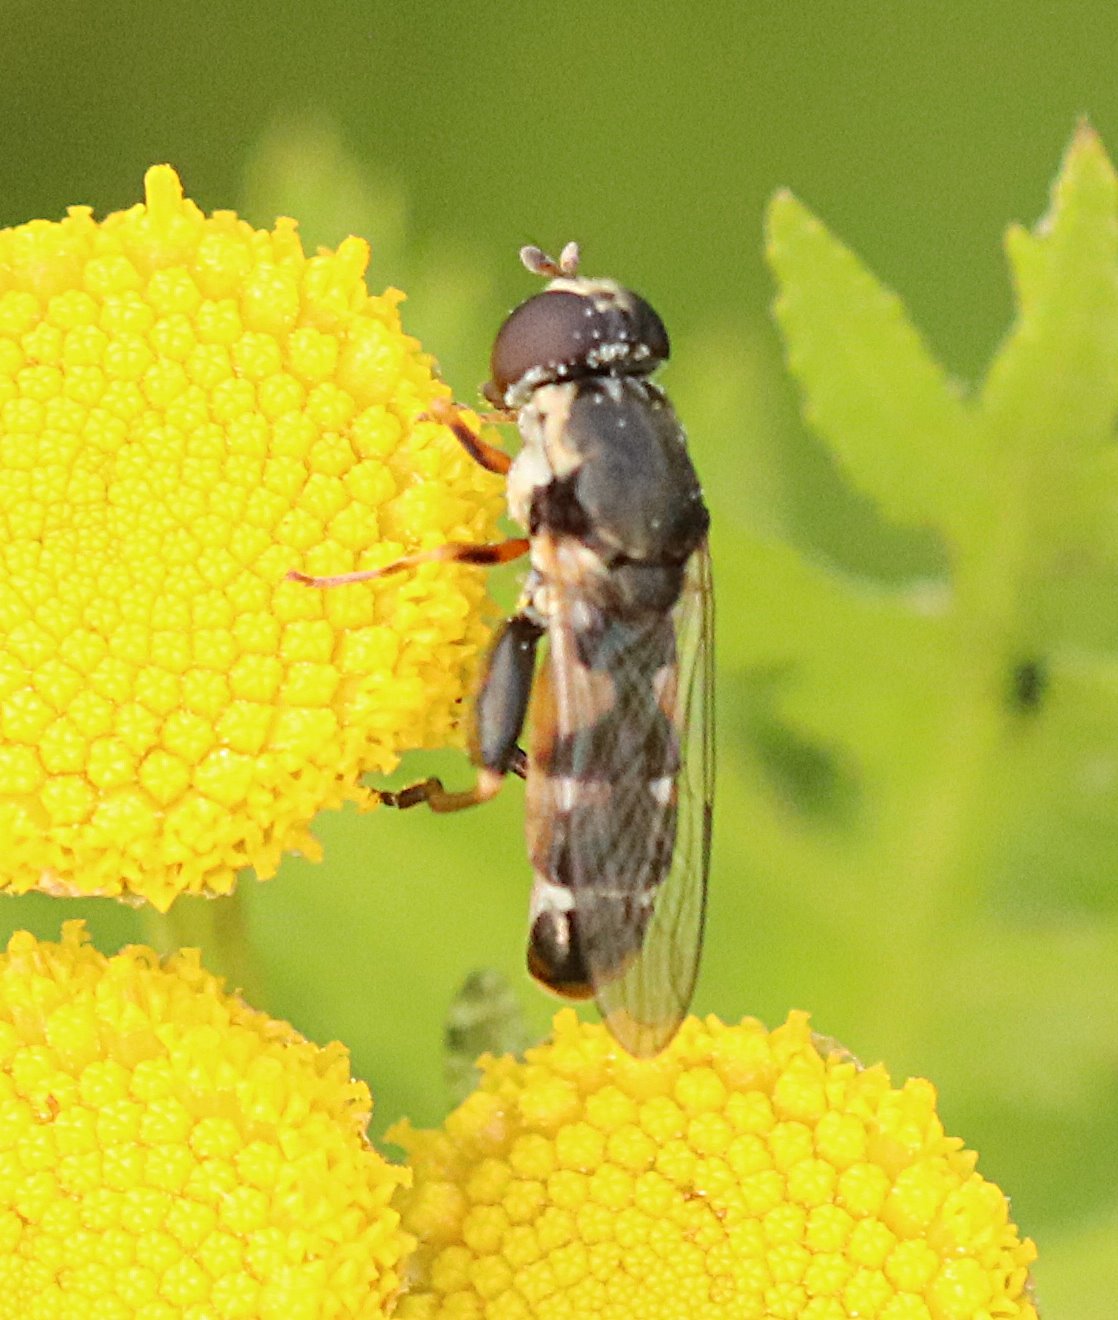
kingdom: Animalia
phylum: Arthropoda
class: Insecta
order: Diptera
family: Syrphidae
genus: Syritta
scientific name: Syritta pipiens
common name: Hover fly
